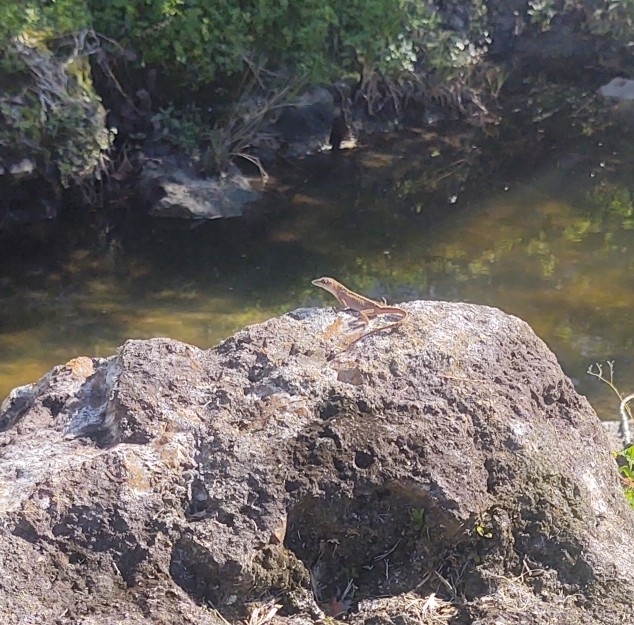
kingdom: Animalia
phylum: Chordata
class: Squamata
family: Dactyloidae
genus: Anolis
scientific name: Anolis sagrei
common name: Brown anole
